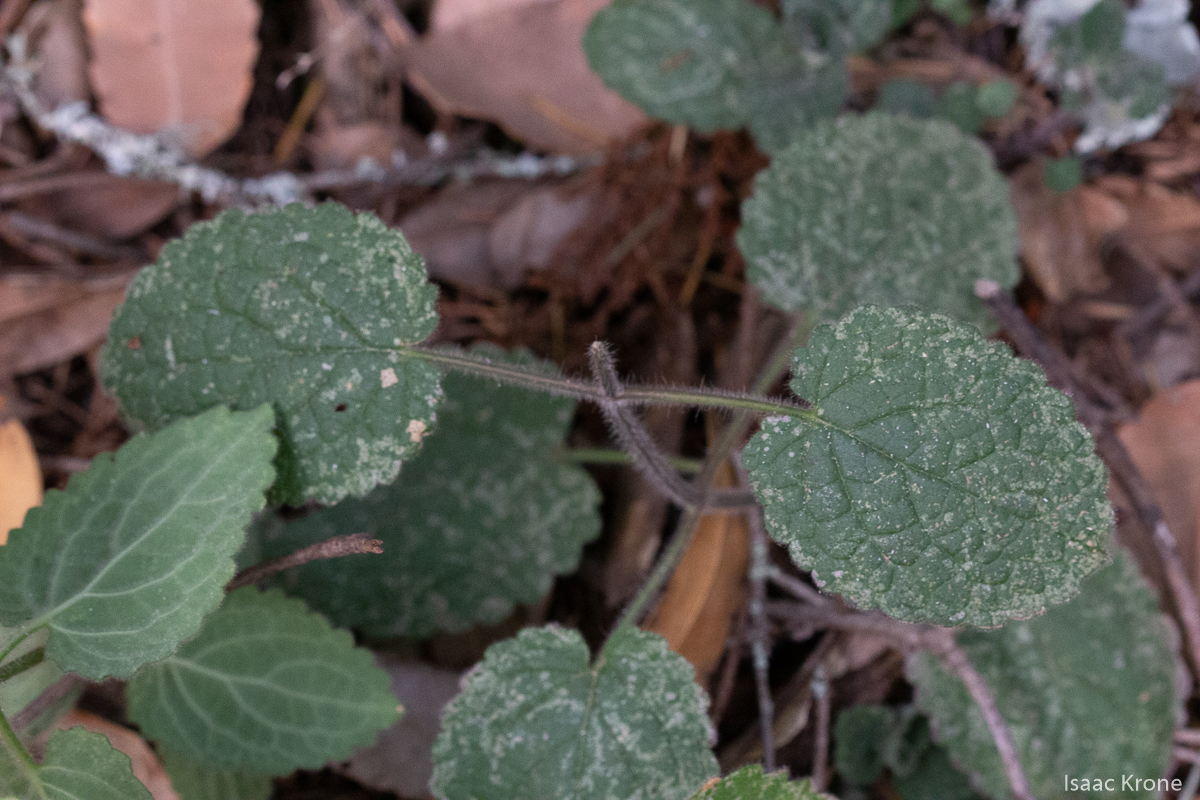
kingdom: Plantae
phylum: Tracheophyta
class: Magnoliopsida
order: Lamiales
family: Lamiaceae
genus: Stachys
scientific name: Stachys
